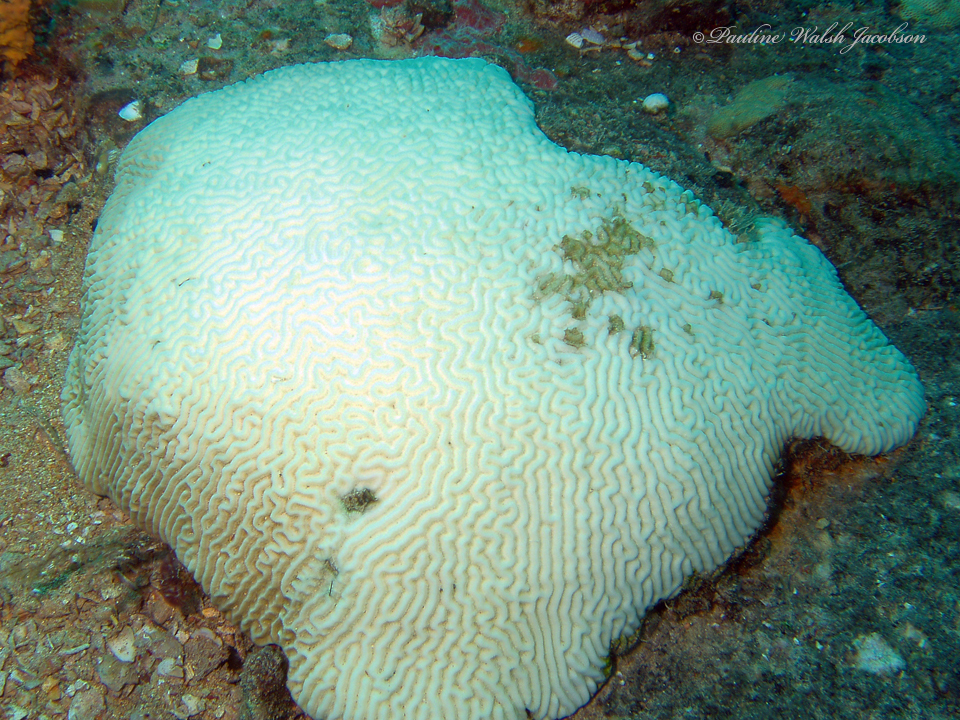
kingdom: Animalia
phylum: Cnidaria
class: Anthozoa
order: Scleractinia
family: Faviidae
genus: Pseudodiploria
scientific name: Pseudodiploria strigosa
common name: Symmetrical brain coral
